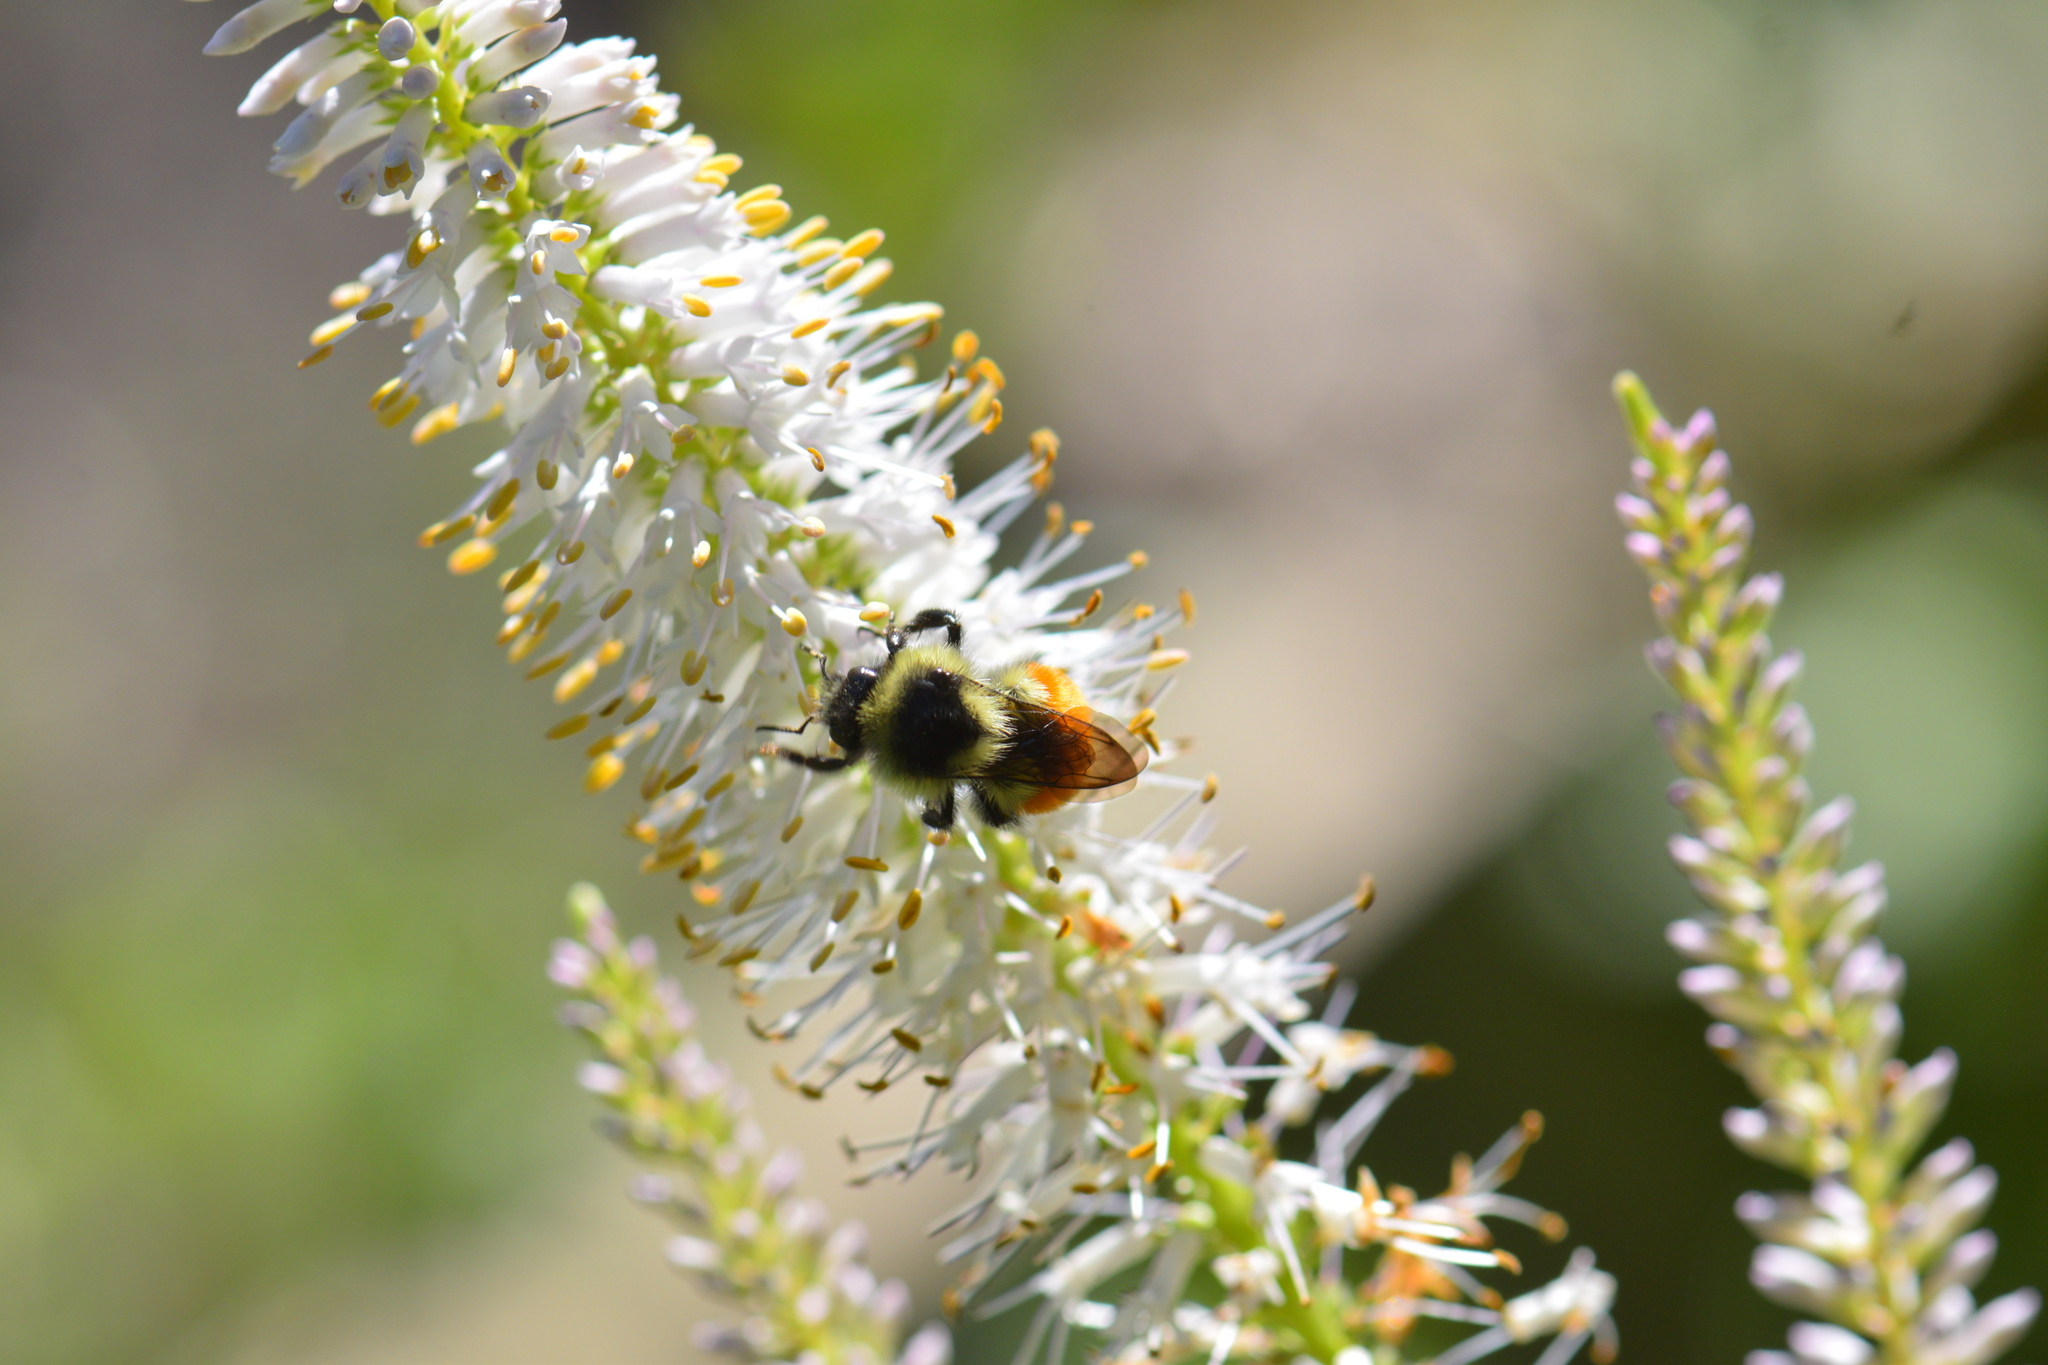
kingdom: Animalia
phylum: Arthropoda
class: Insecta
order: Hymenoptera
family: Apidae
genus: Bombus
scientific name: Bombus ternarius
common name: Tri-colored bumble bee
